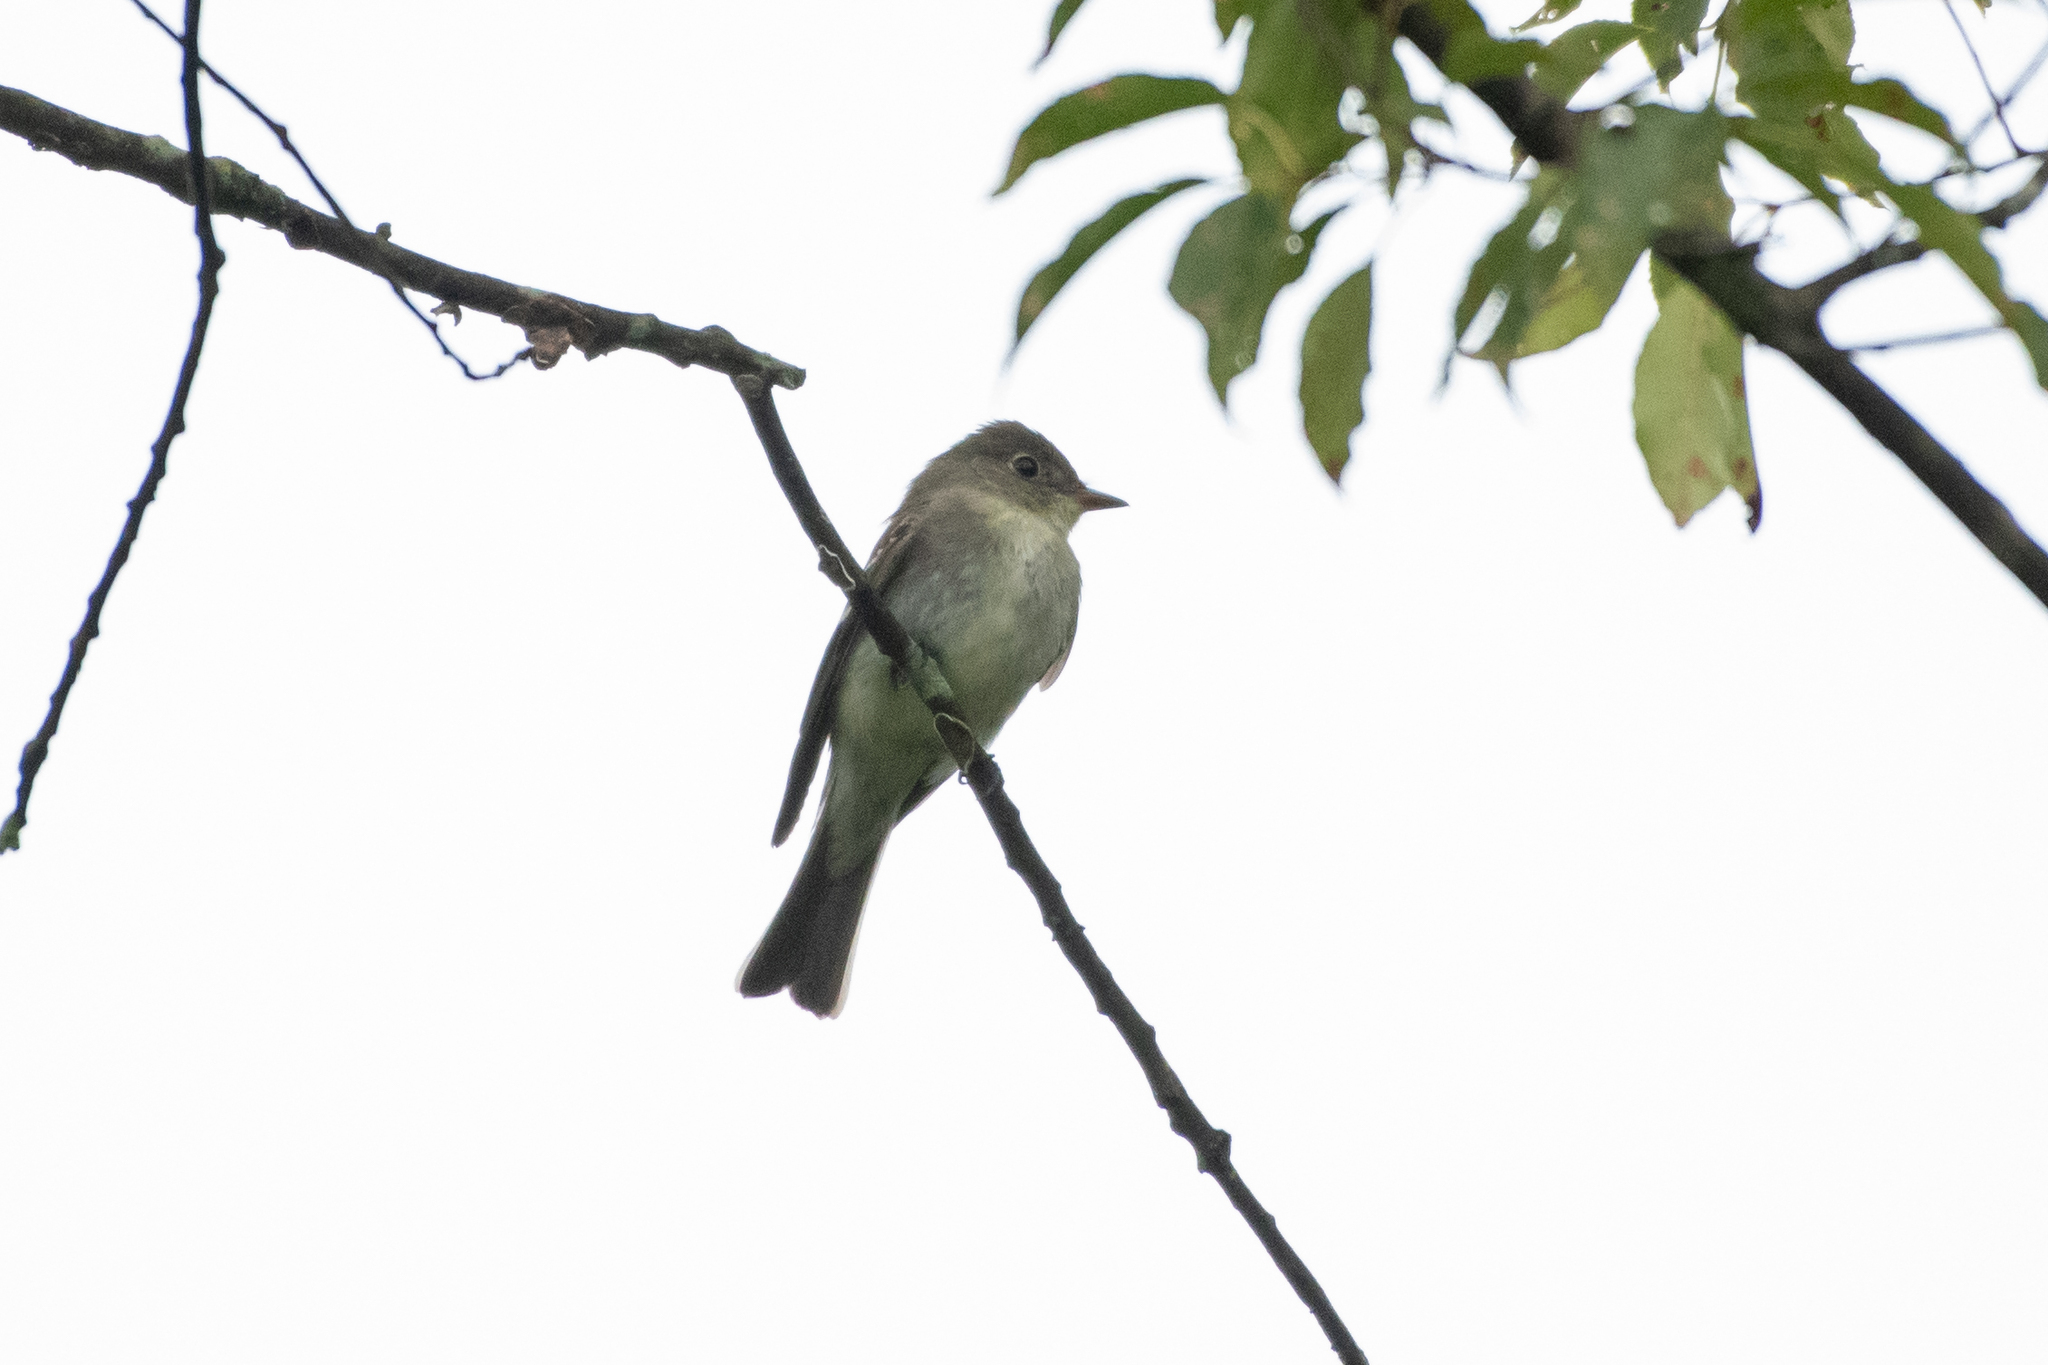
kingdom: Animalia
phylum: Chordata
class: Aves
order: Passeriformes
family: Tyrannidae
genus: Contopus
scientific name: Contopus virens
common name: Eastern wood-pewee
